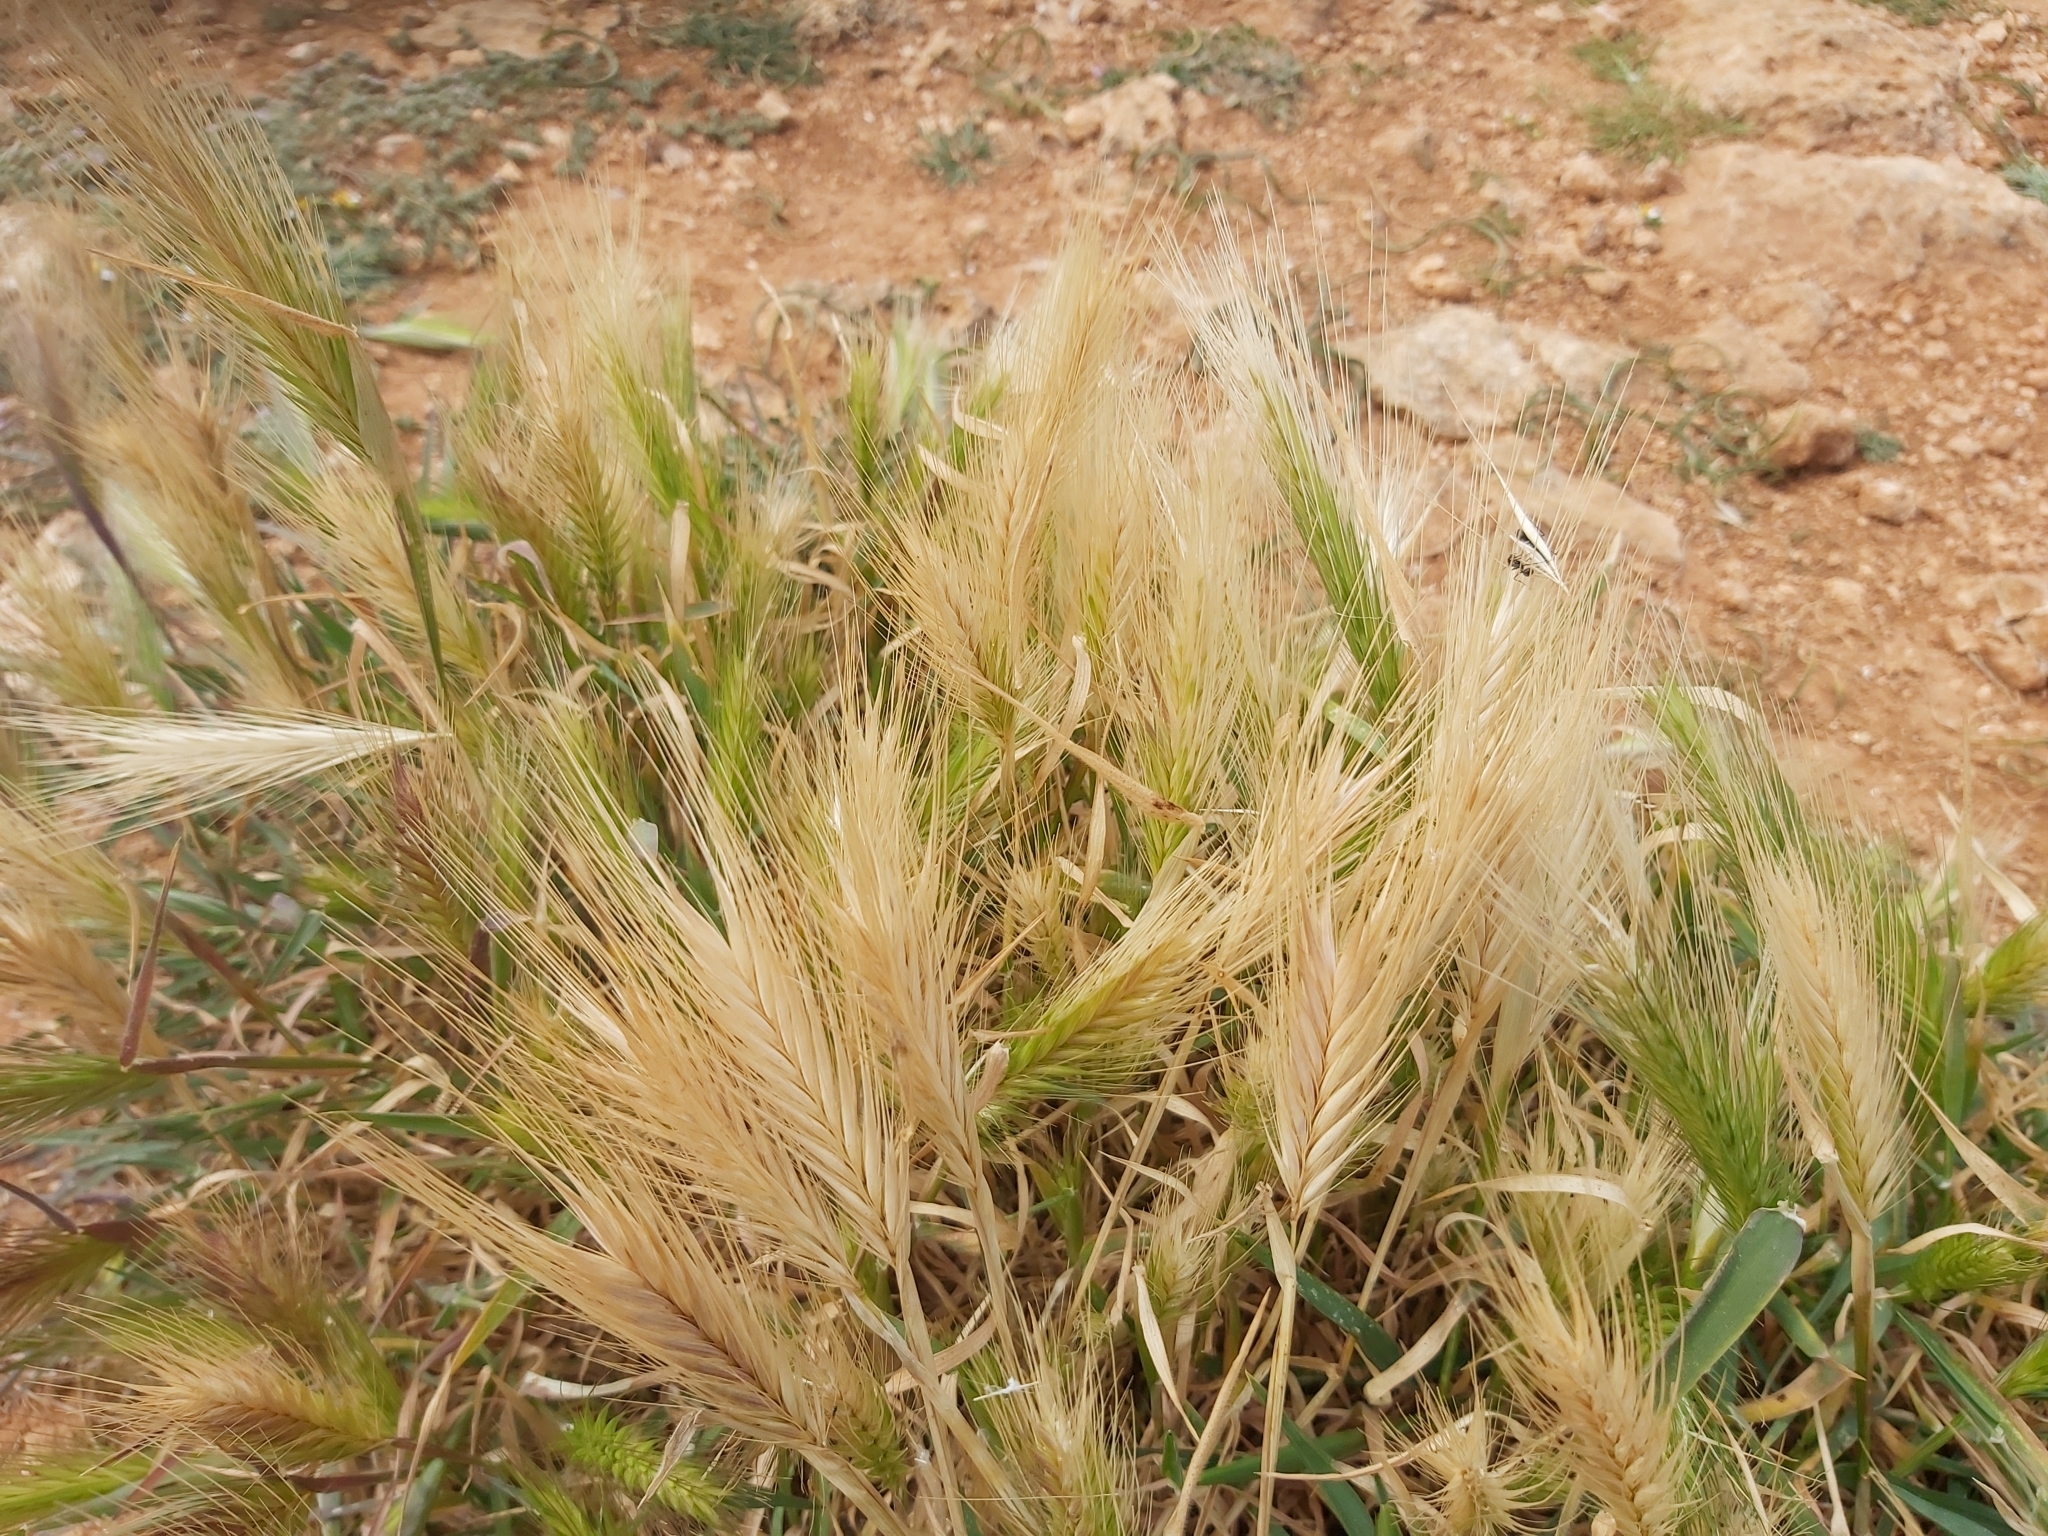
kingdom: Plantae
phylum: Tracheophyta
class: Liliopsida
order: Poales
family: Poaceae
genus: Hordeum
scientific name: Hordeum murinum
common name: Wall barley
